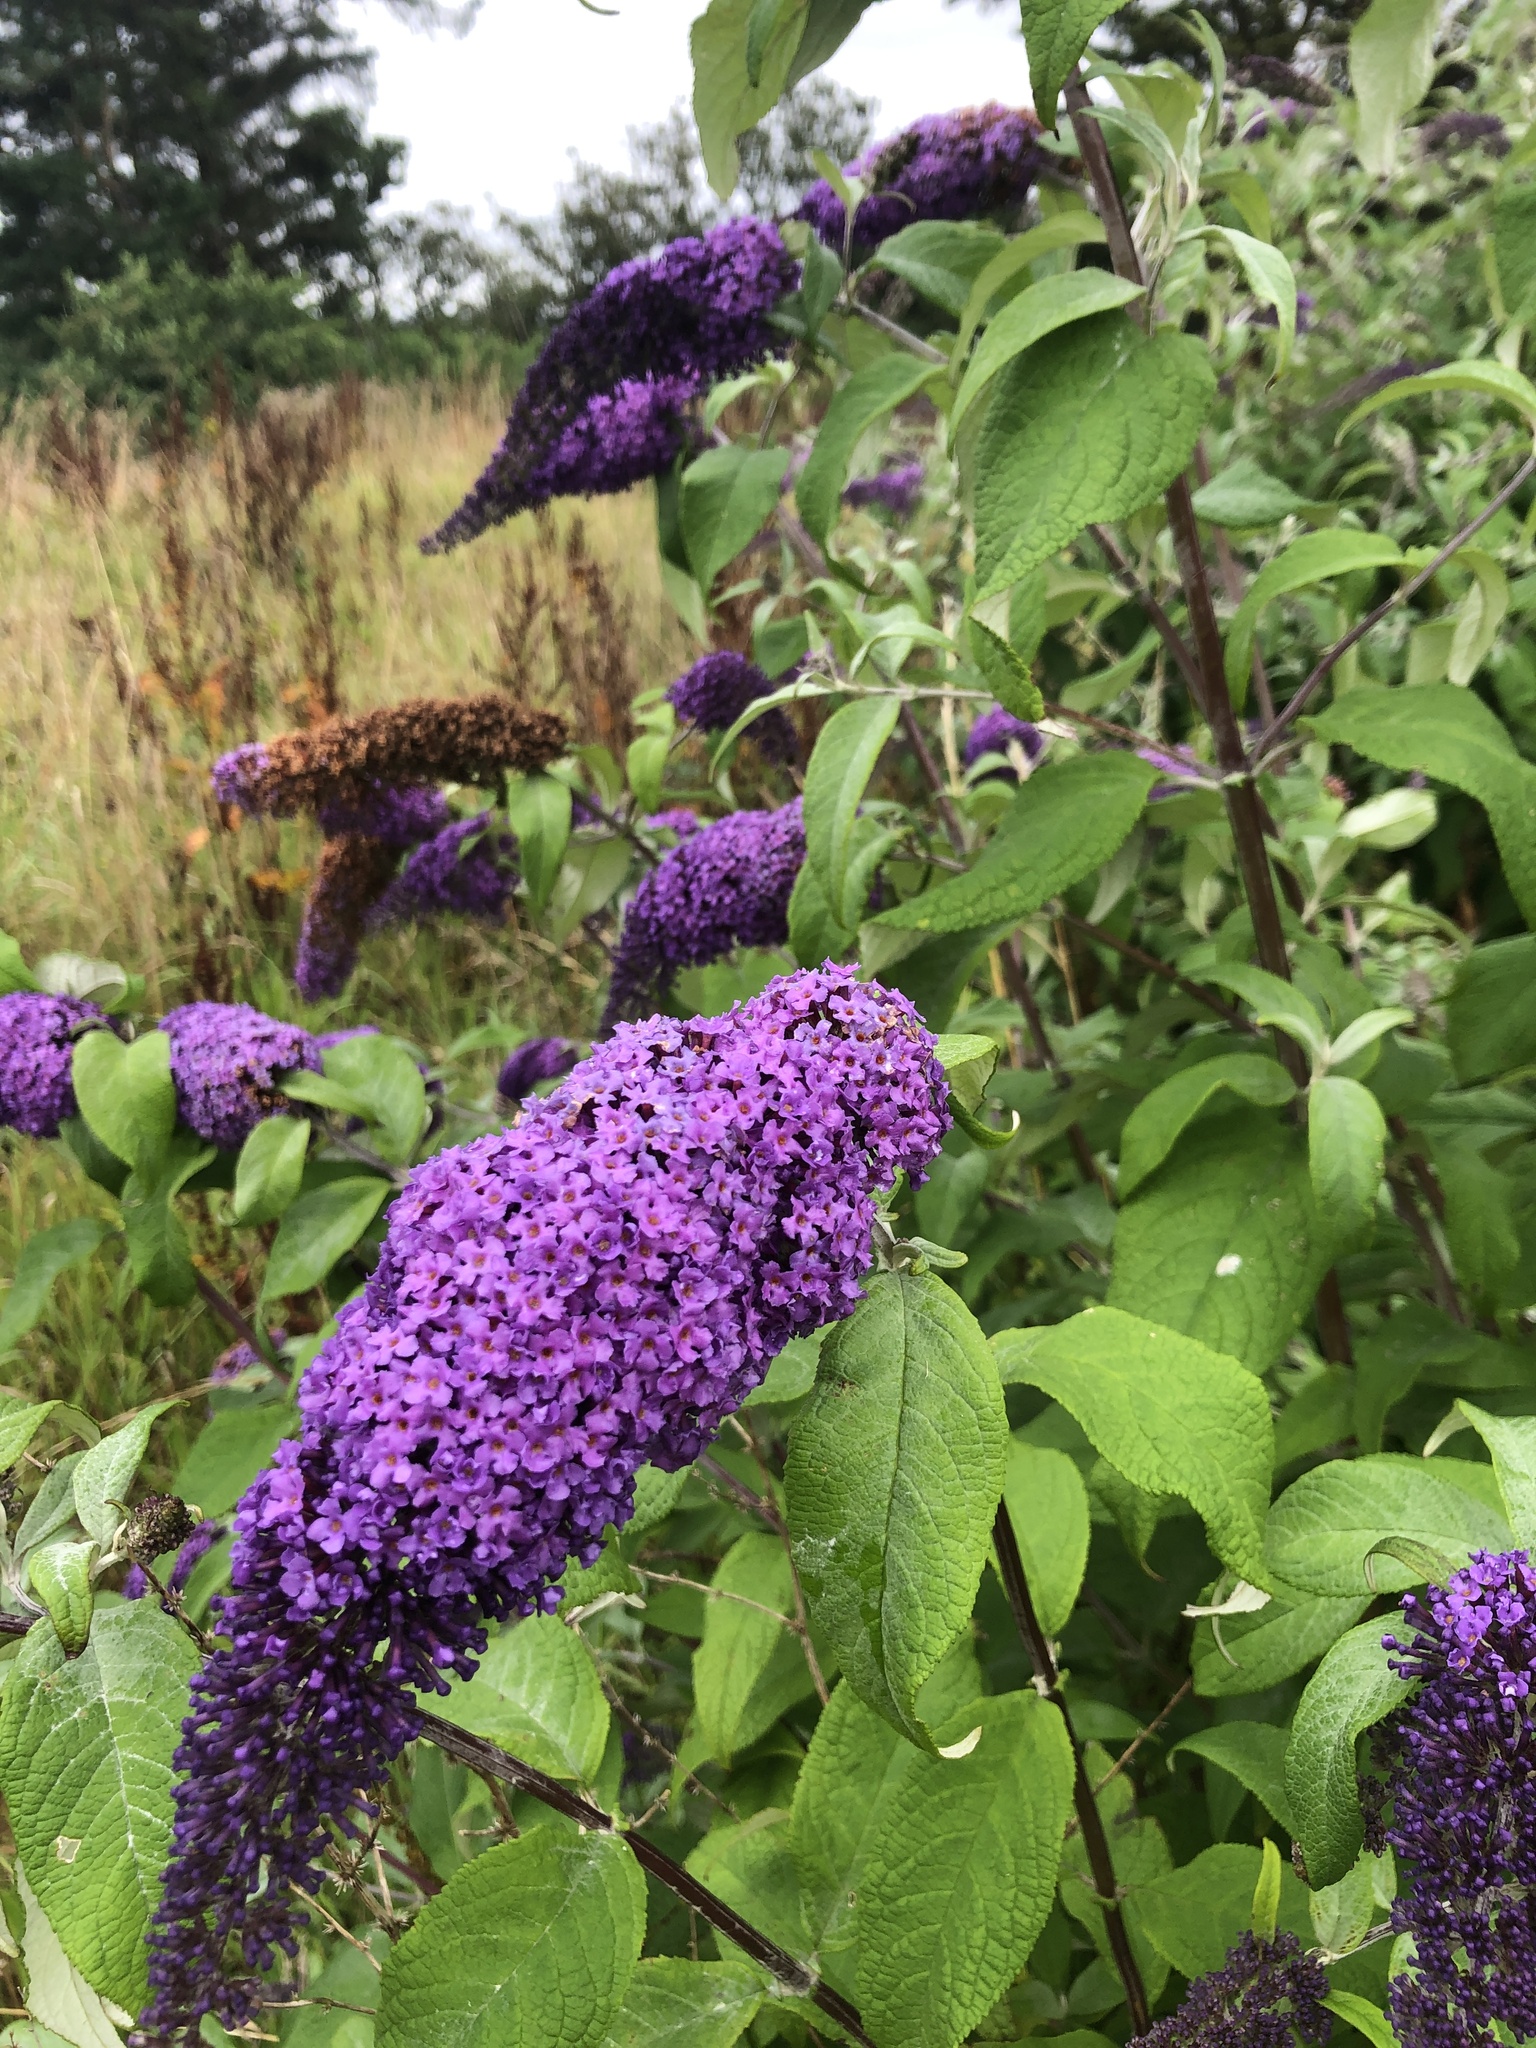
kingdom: Plantae
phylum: Tracheophyta
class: Magnoliopsida
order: Lamiales
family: Scrophulariaceae
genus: Buddleja
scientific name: Buddleja davidii
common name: Butterfly-bush
